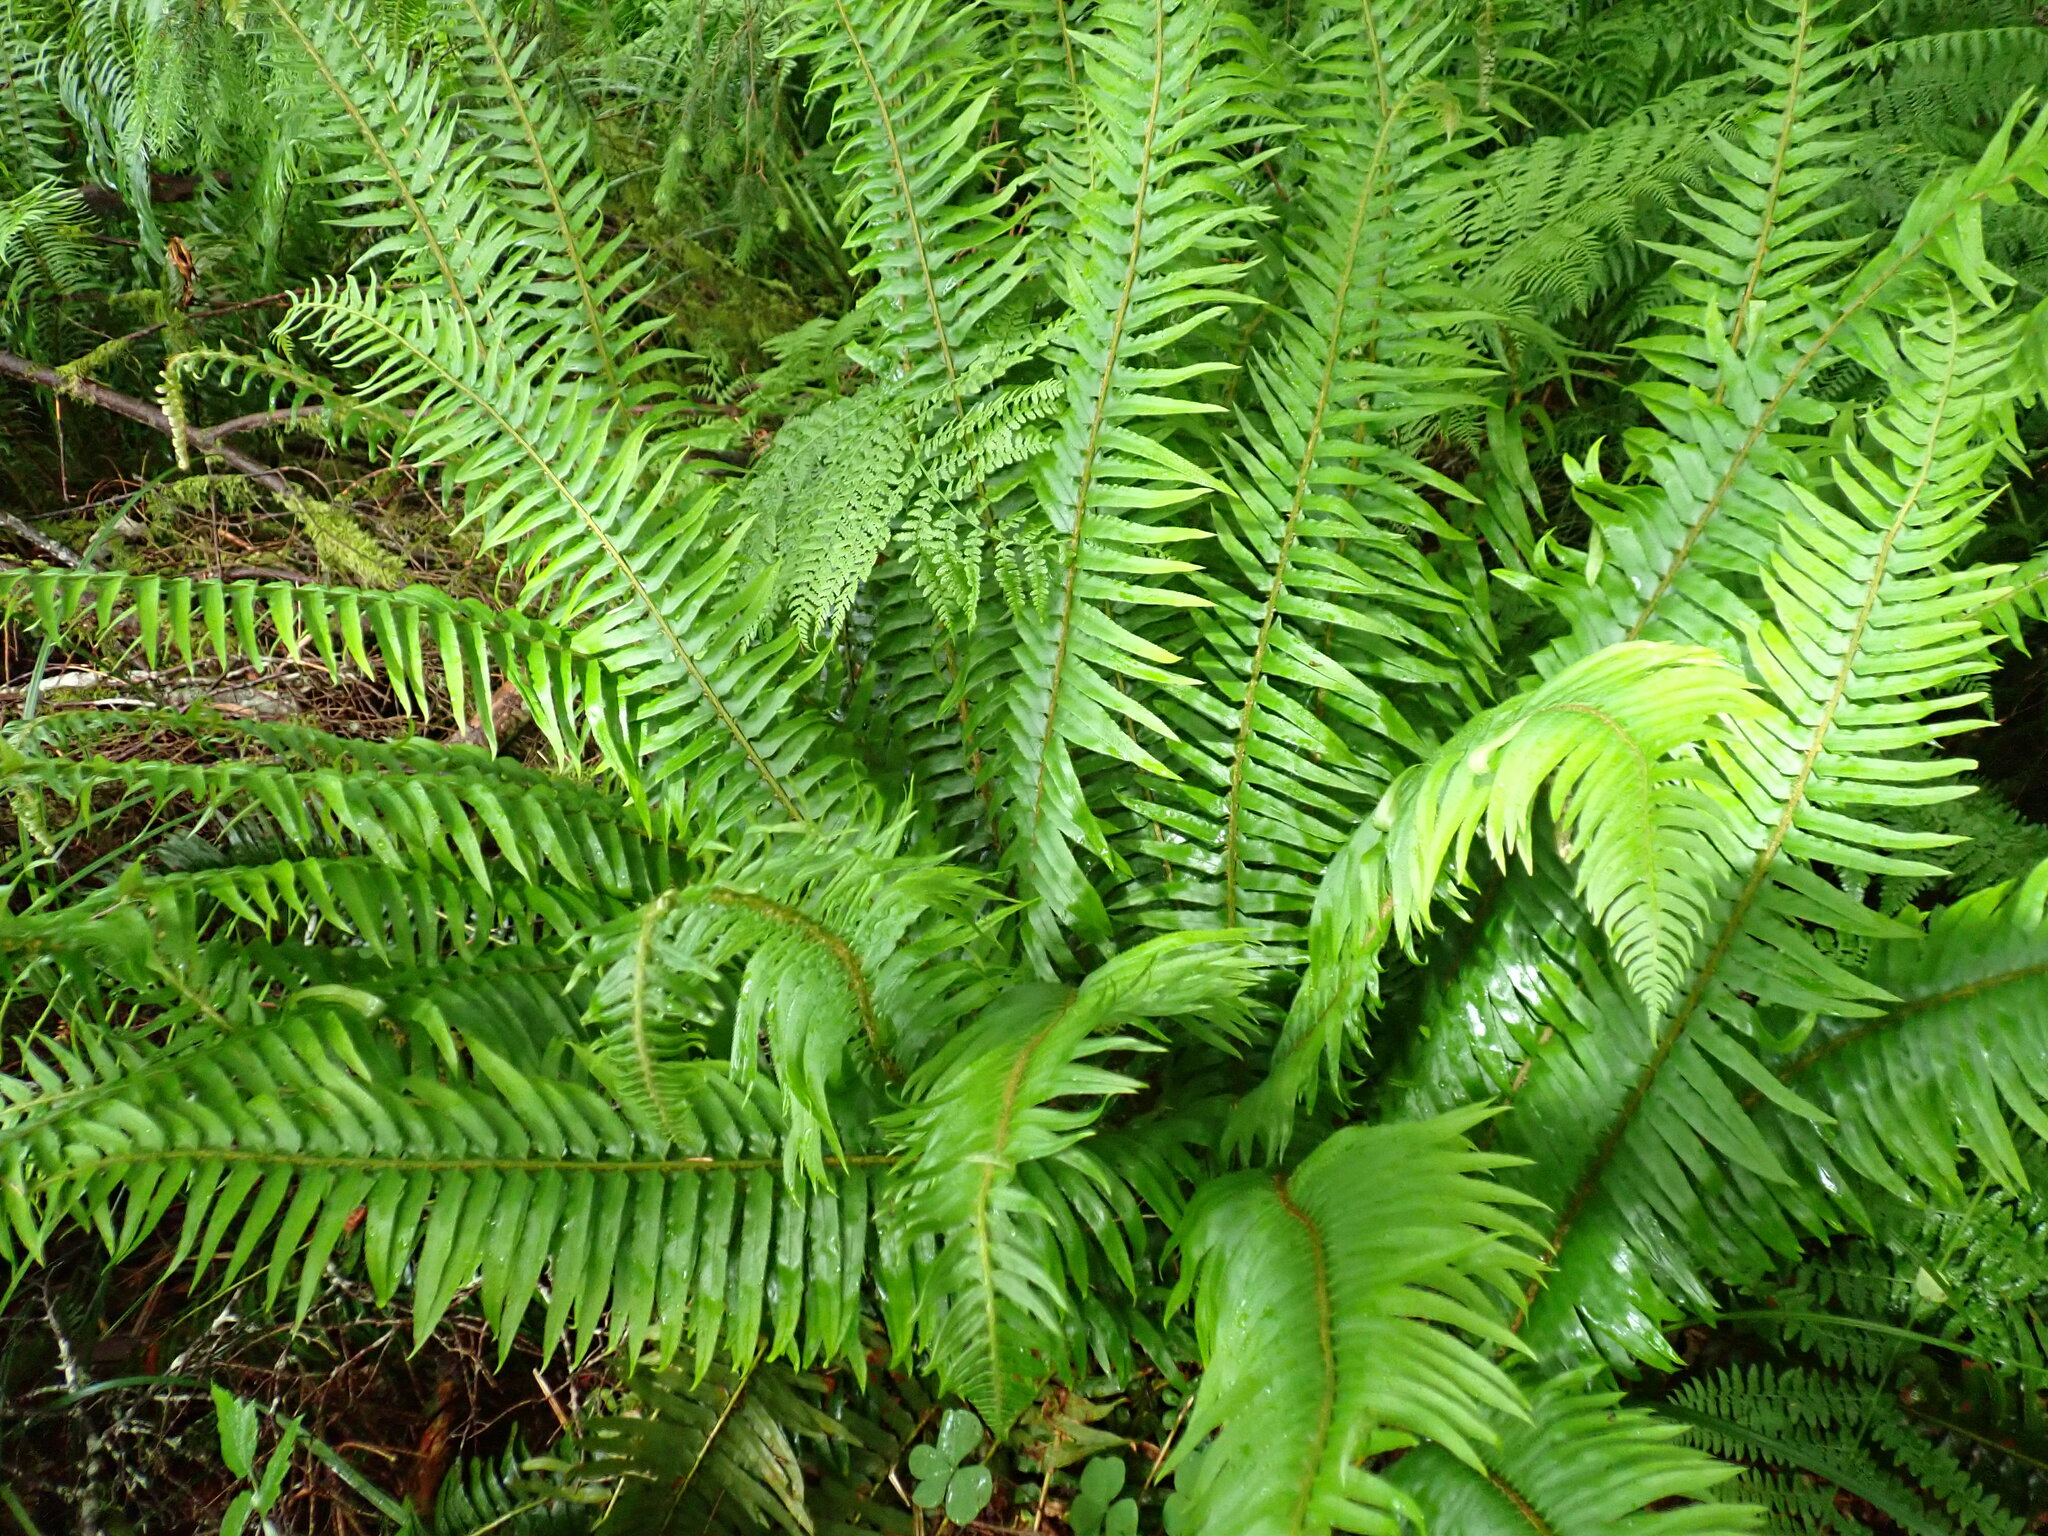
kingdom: Plantae
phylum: Tracheophyta
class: Polypodiopsida
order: Polypodiales
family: Dryopteridaceae
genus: Polystichum
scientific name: Polystichum munitum
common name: Western sword-fern
